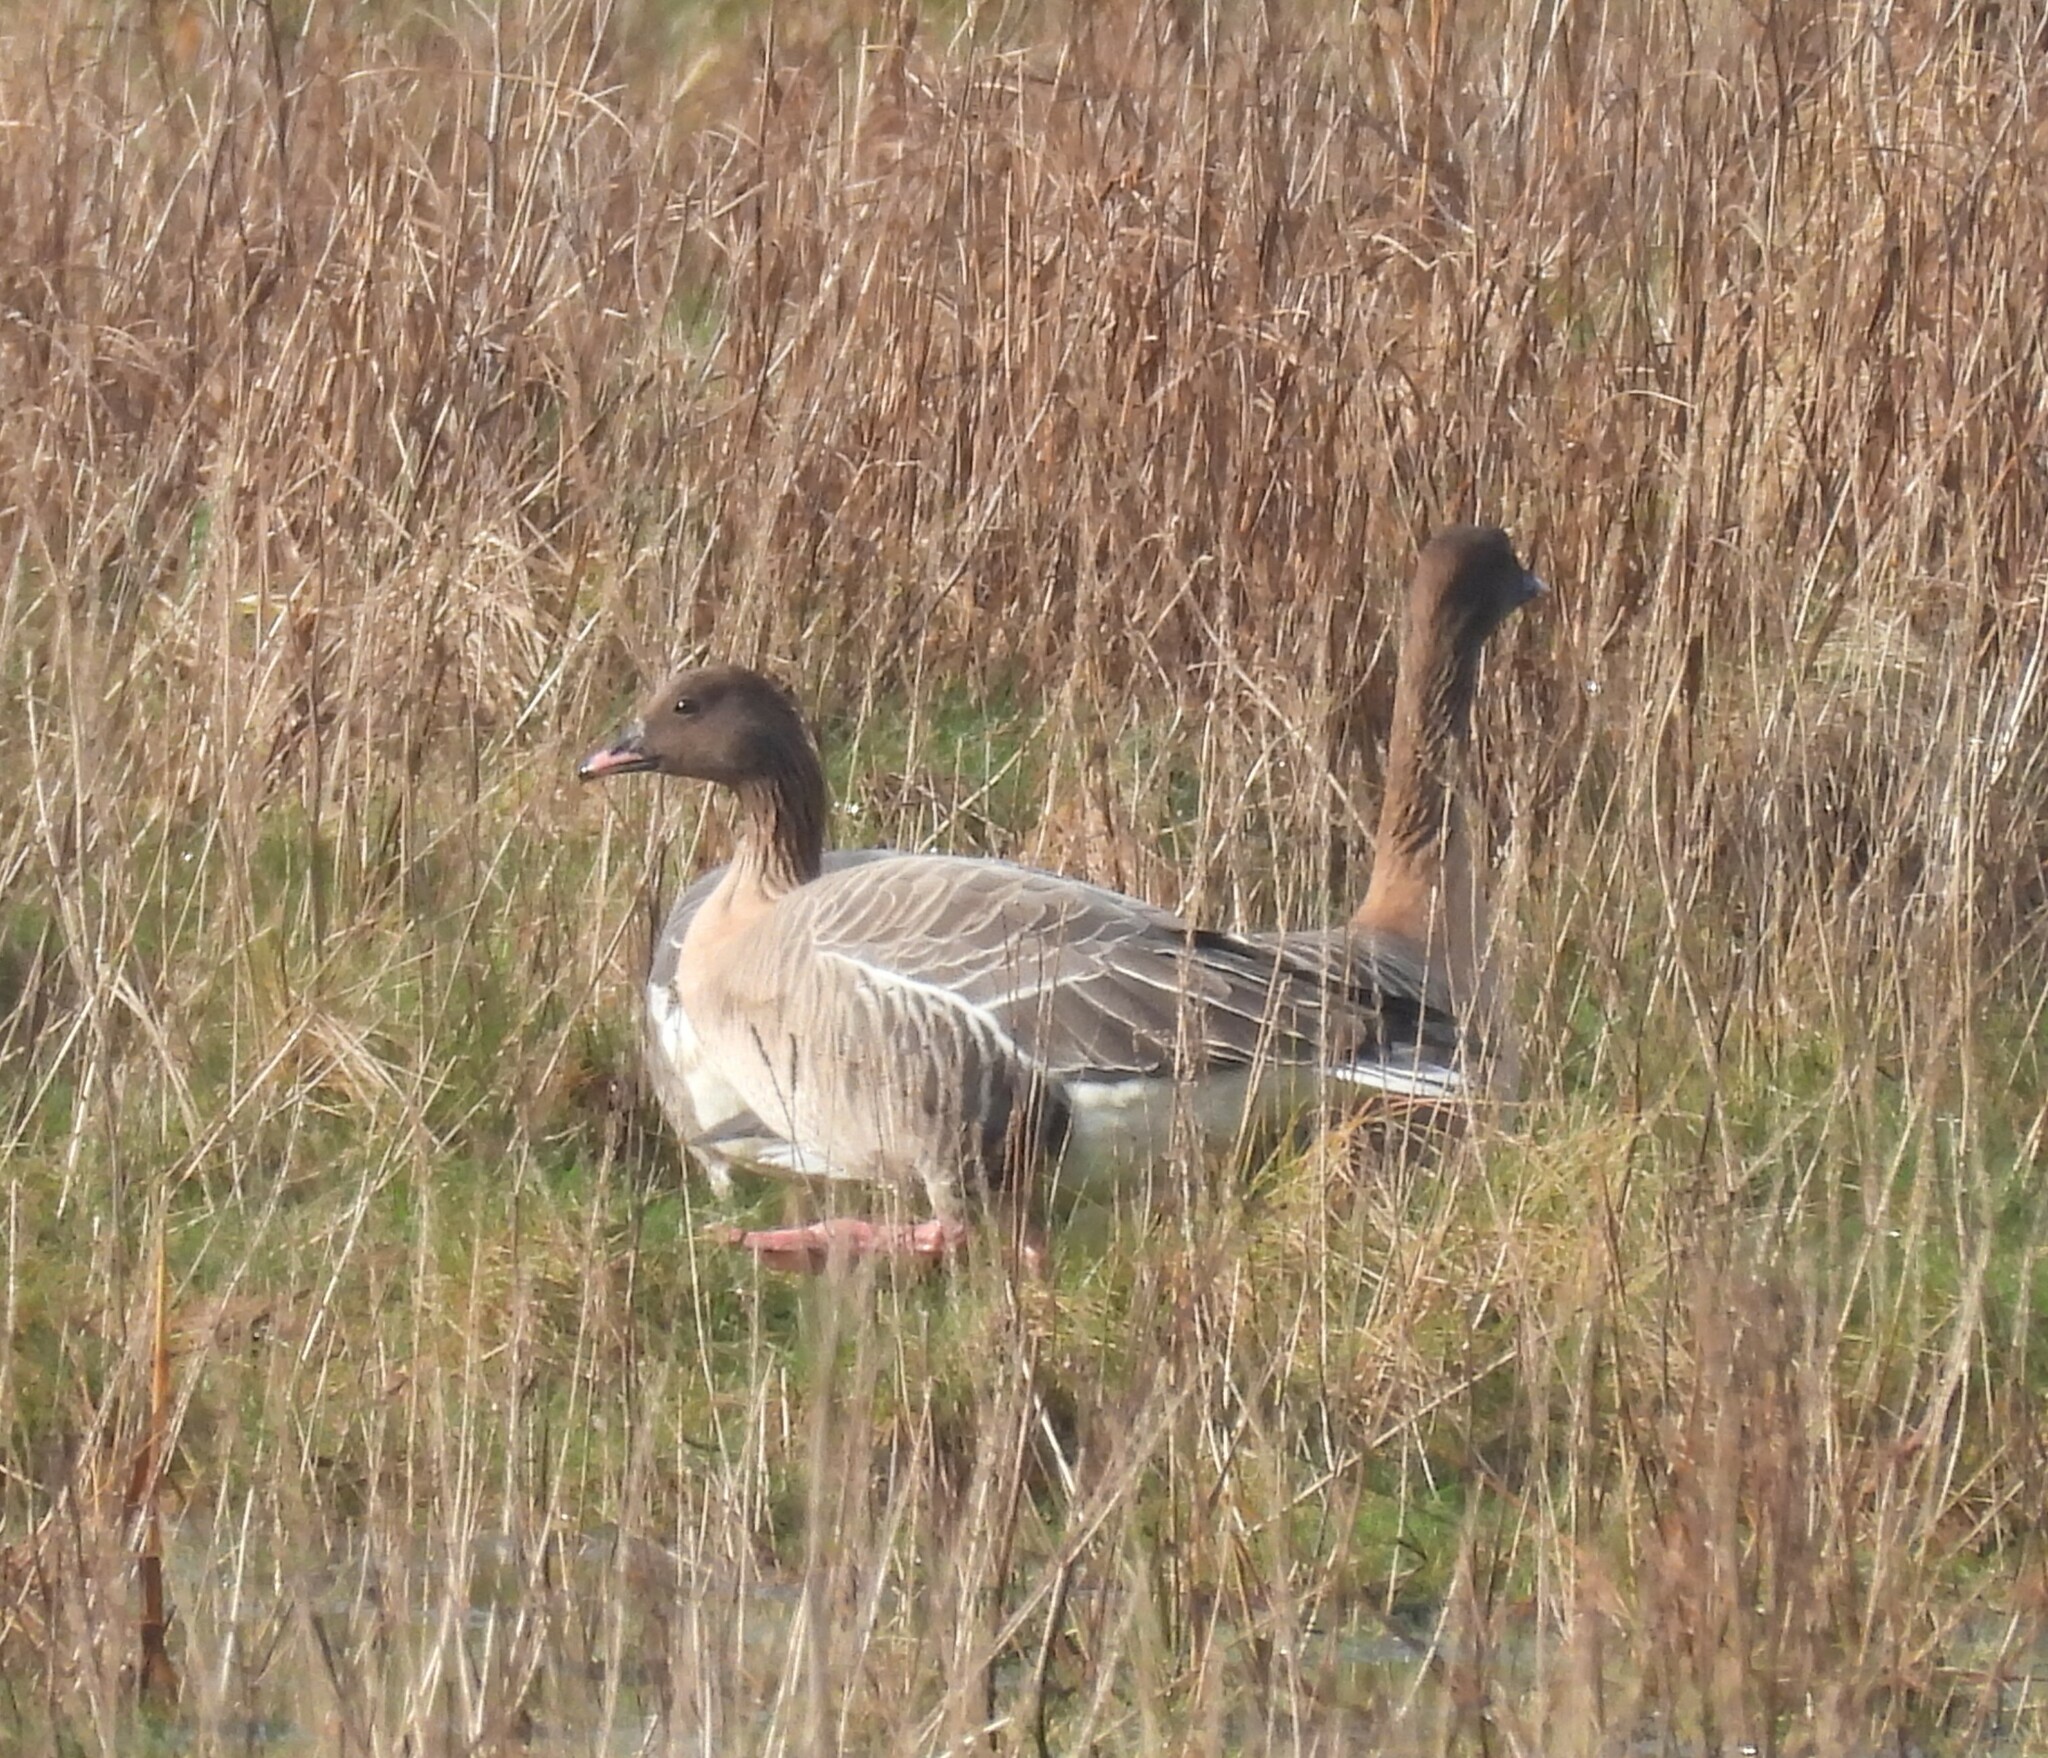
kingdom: Animalia
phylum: Chordata
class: Aves
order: Anseriformes
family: Anatidae
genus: Anser
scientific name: Anser brachyrhynchus
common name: Pink-footed goose
